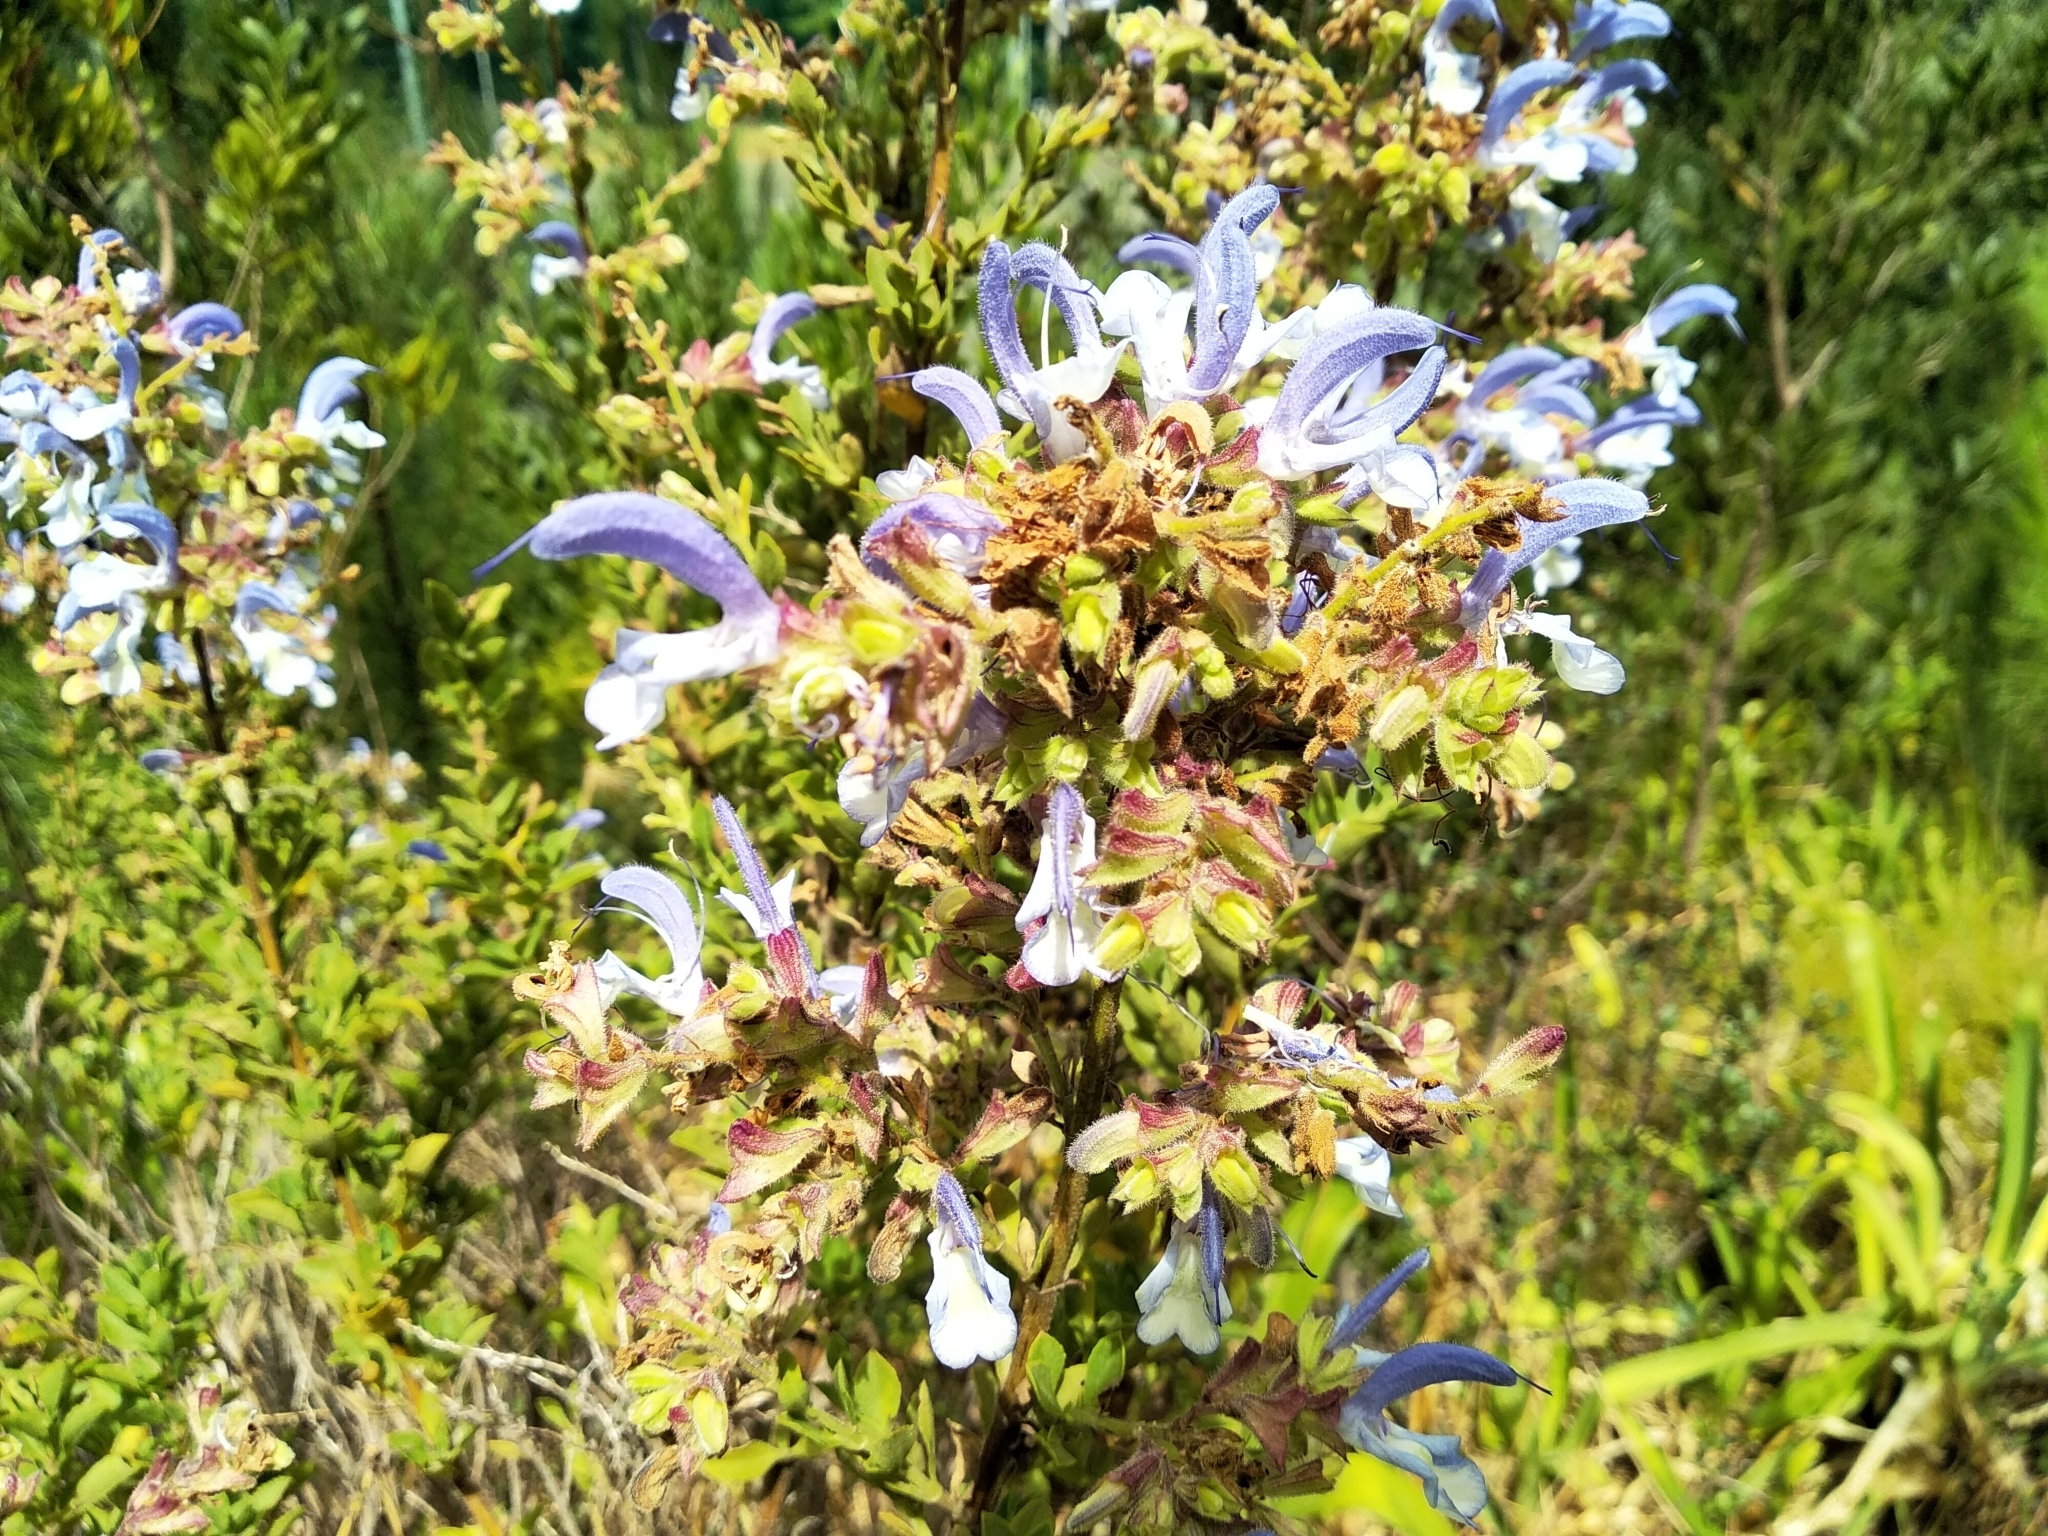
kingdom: Plantae
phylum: Tracheophyta
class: Magnoliopsida
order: Lamiales
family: Lamiaceae
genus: Salvia
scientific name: Salvia chamelaeagnea
